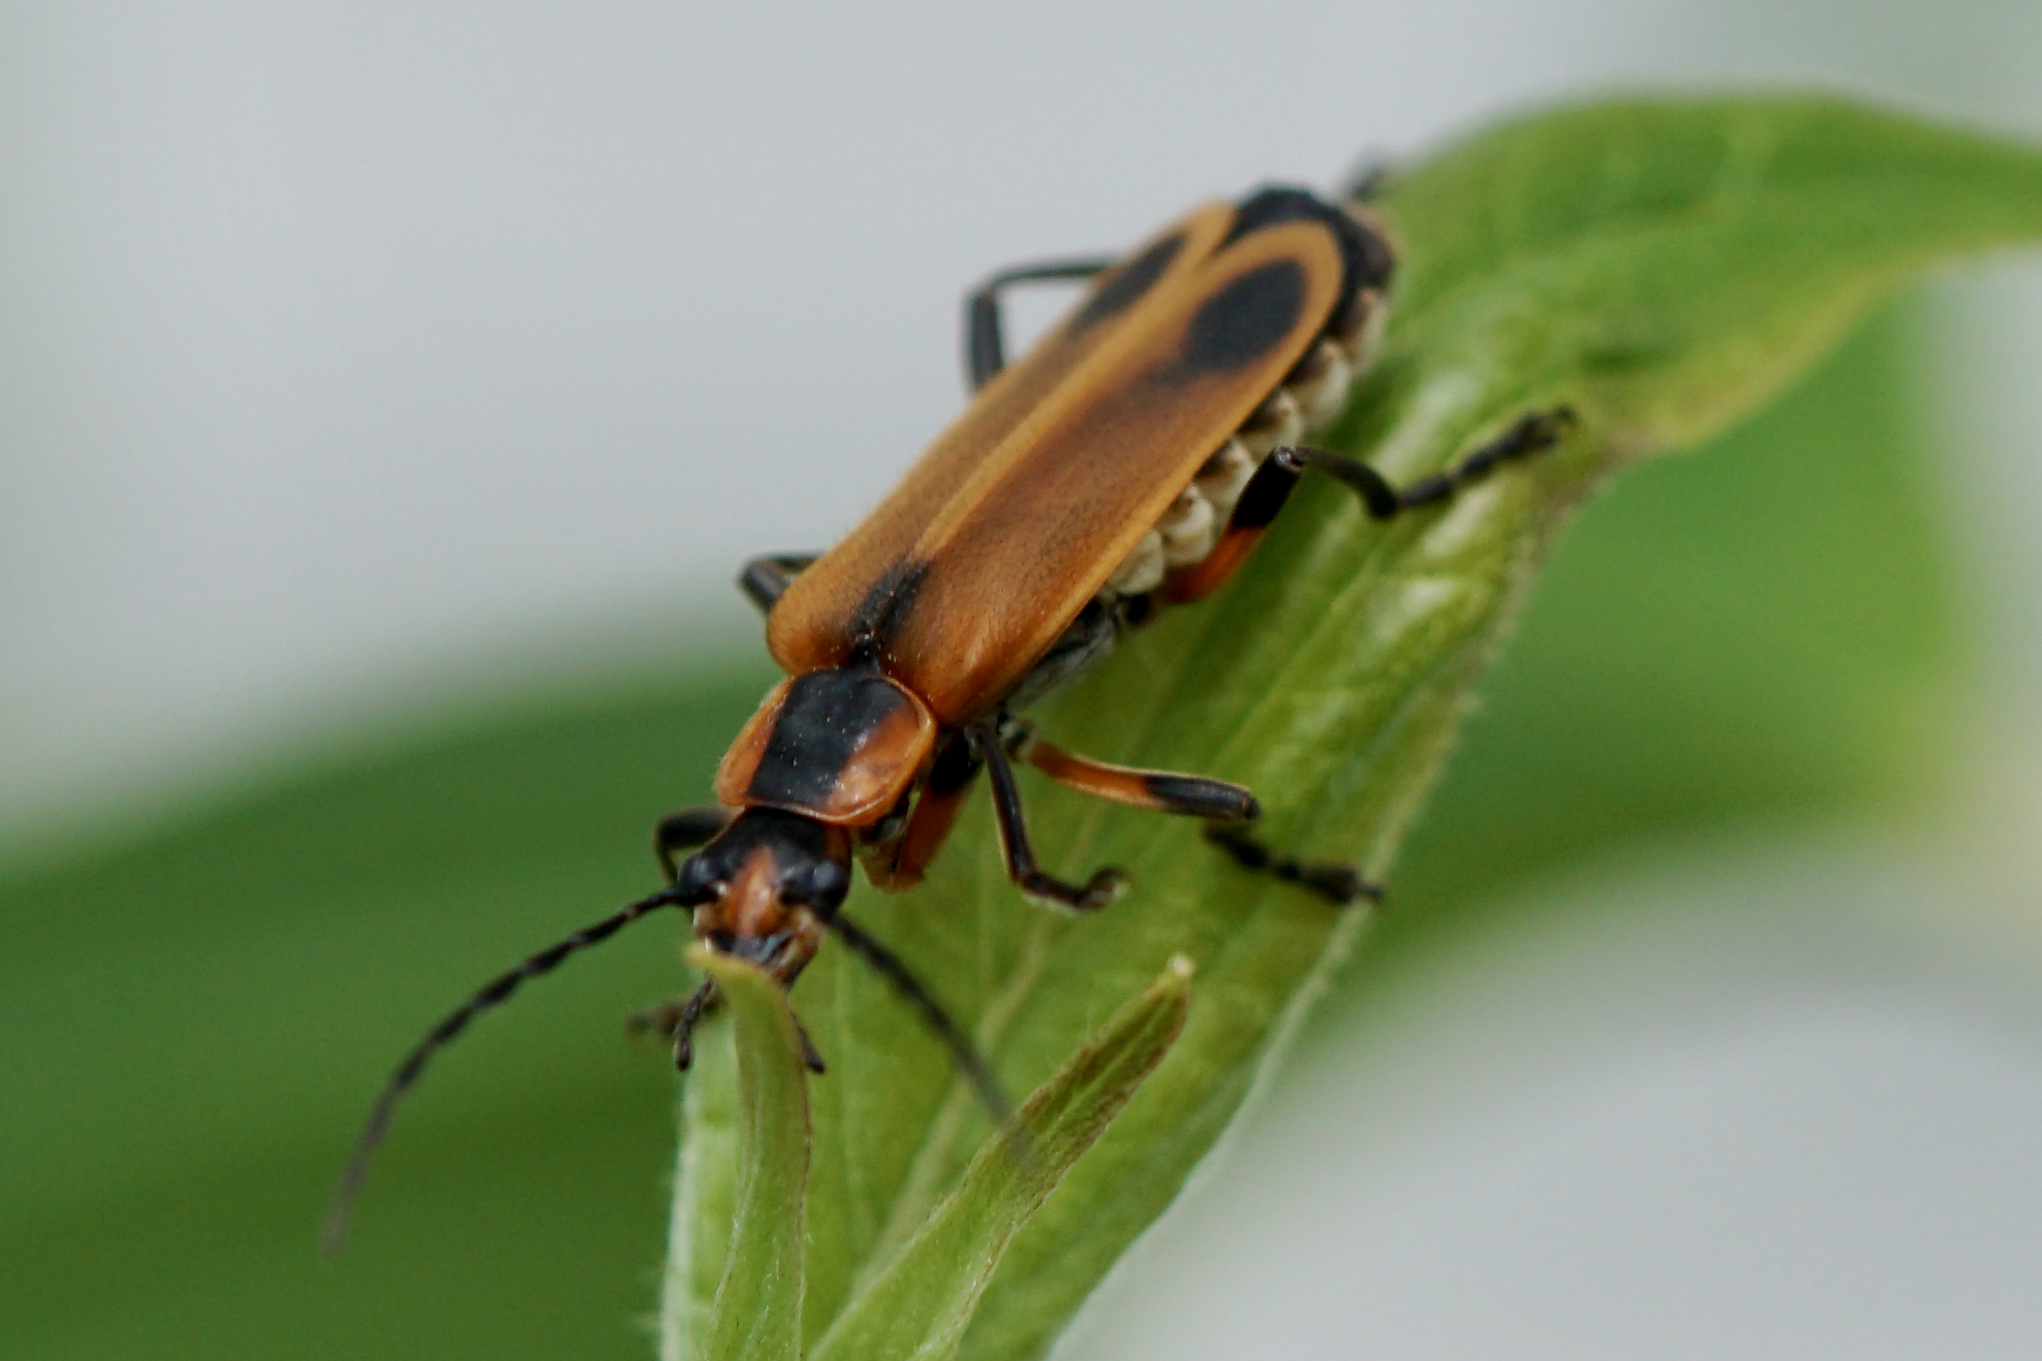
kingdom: Animalia
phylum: Arthropoda
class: Insecta
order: Coleoptera
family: Cantharidae
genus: Chauliognathus
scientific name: Chauliognathus marginatus
